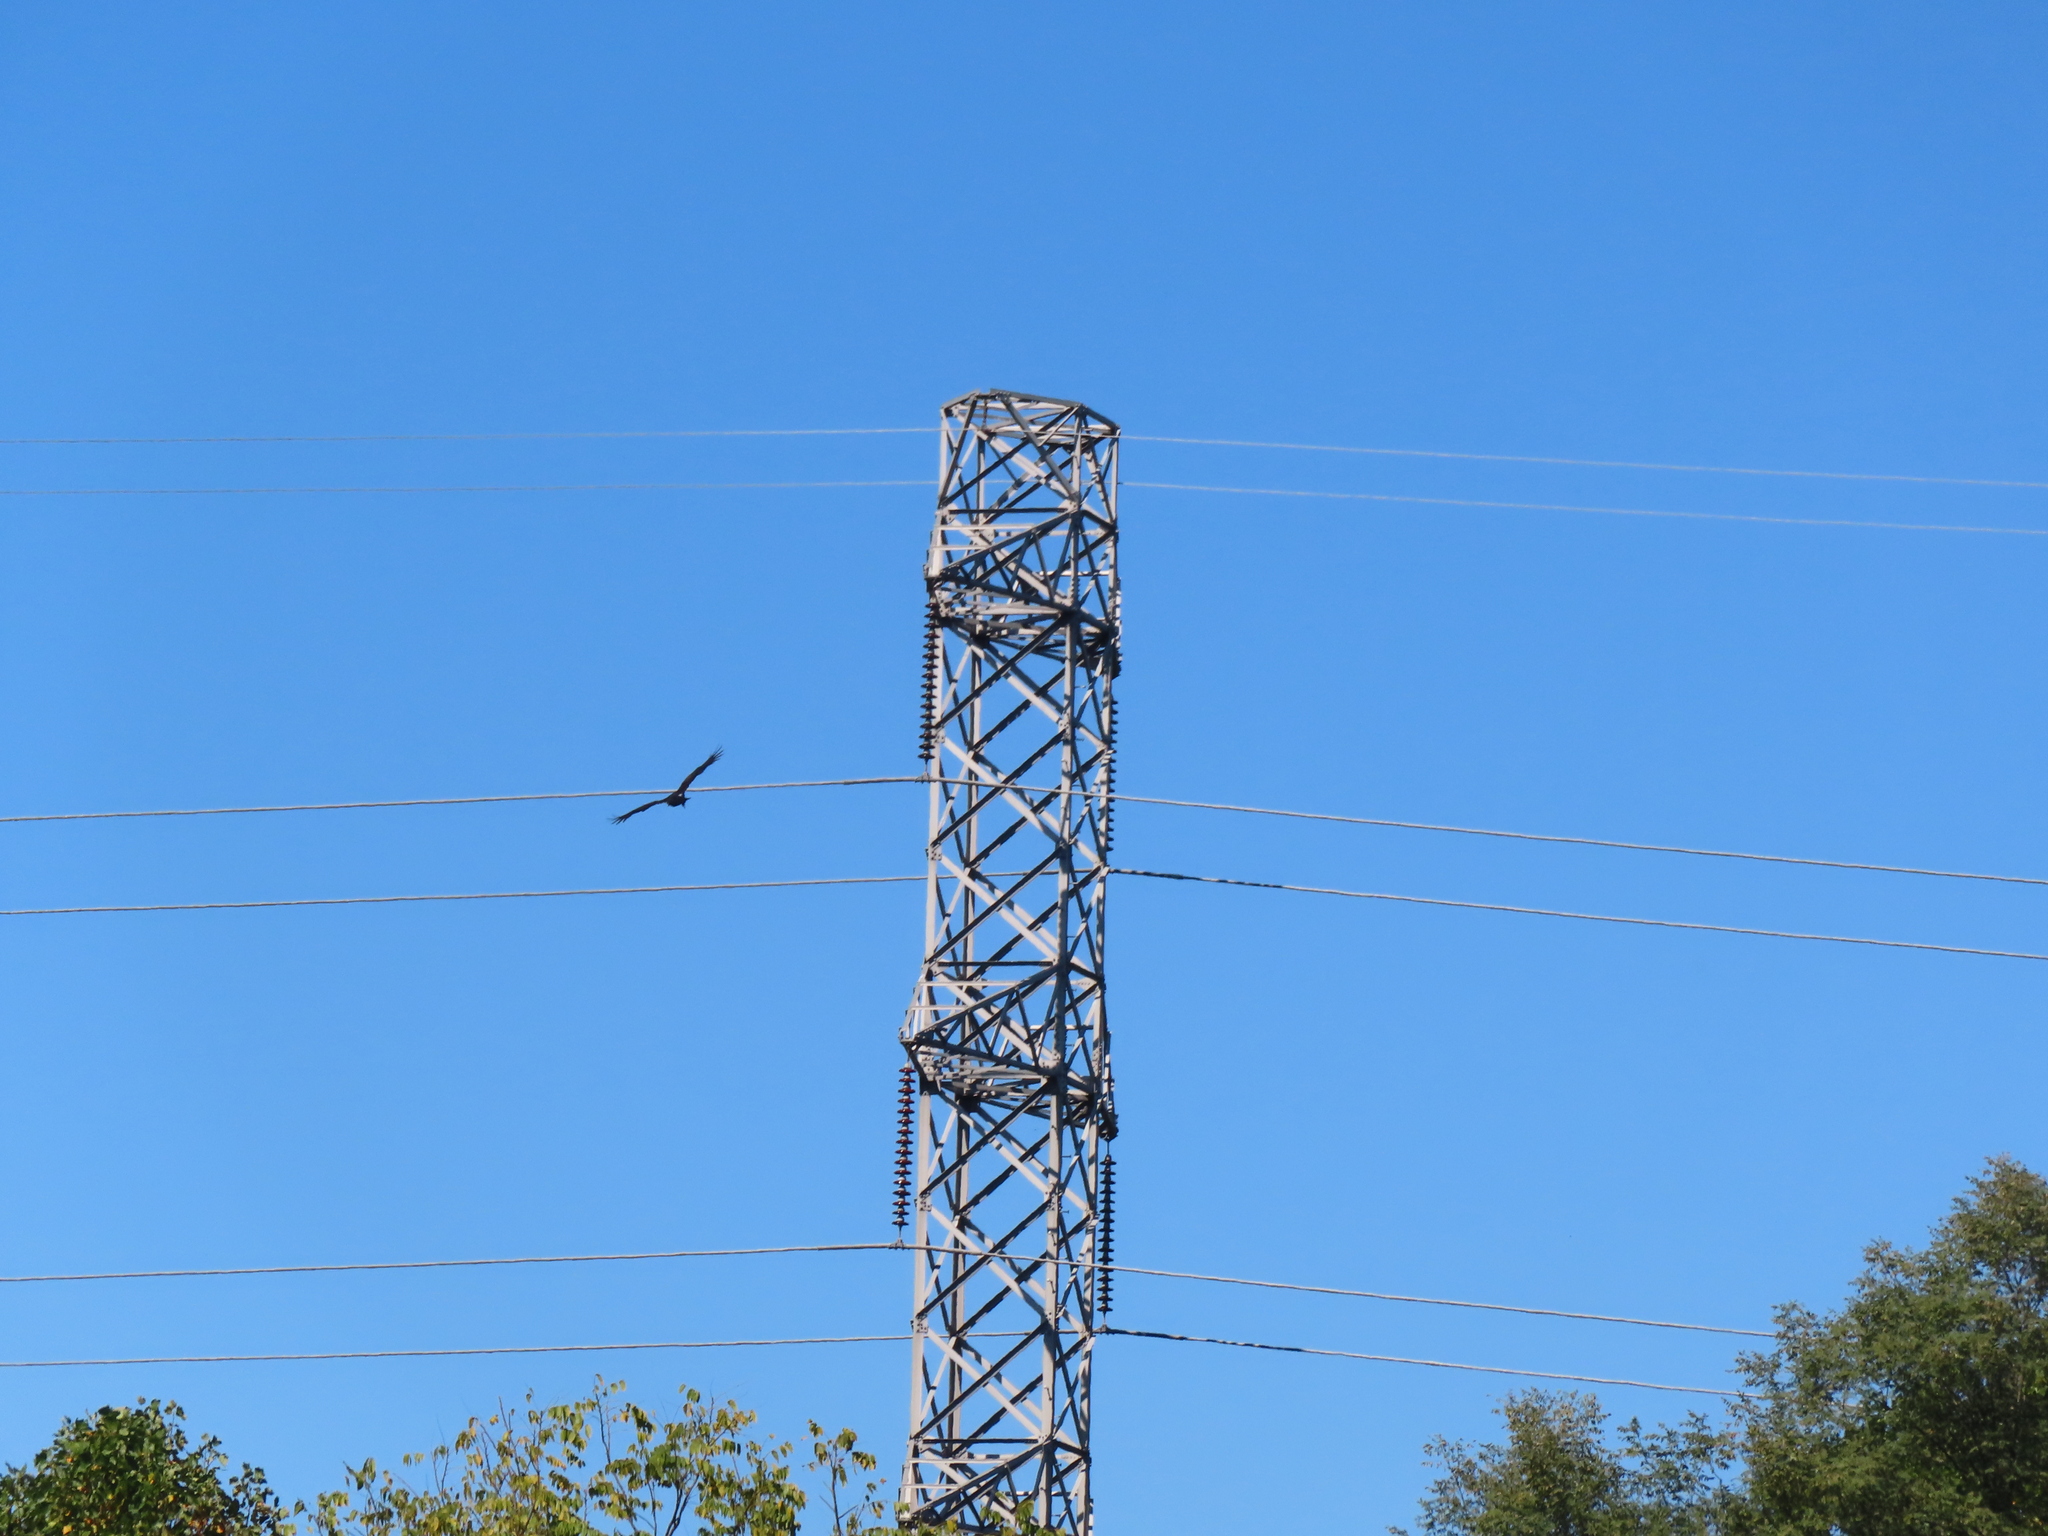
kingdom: Animalia
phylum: Chordata
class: Aves
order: Accipitriformes
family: Cathartidae
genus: Cathartes
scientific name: Cathartes aura
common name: Turkey vulture
